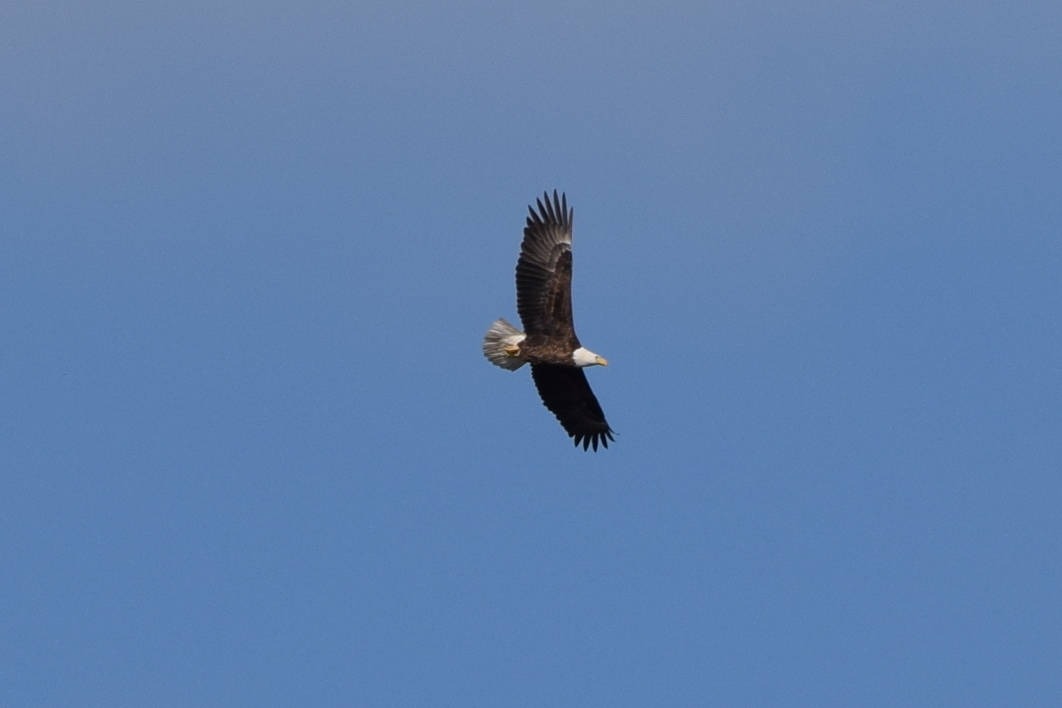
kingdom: Animalia
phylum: Chordata
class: Aves
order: Accipitriformes
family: Accipitridae
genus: Haliaeetus
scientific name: Haliaeetus leucocephalus
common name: Bald eagle
